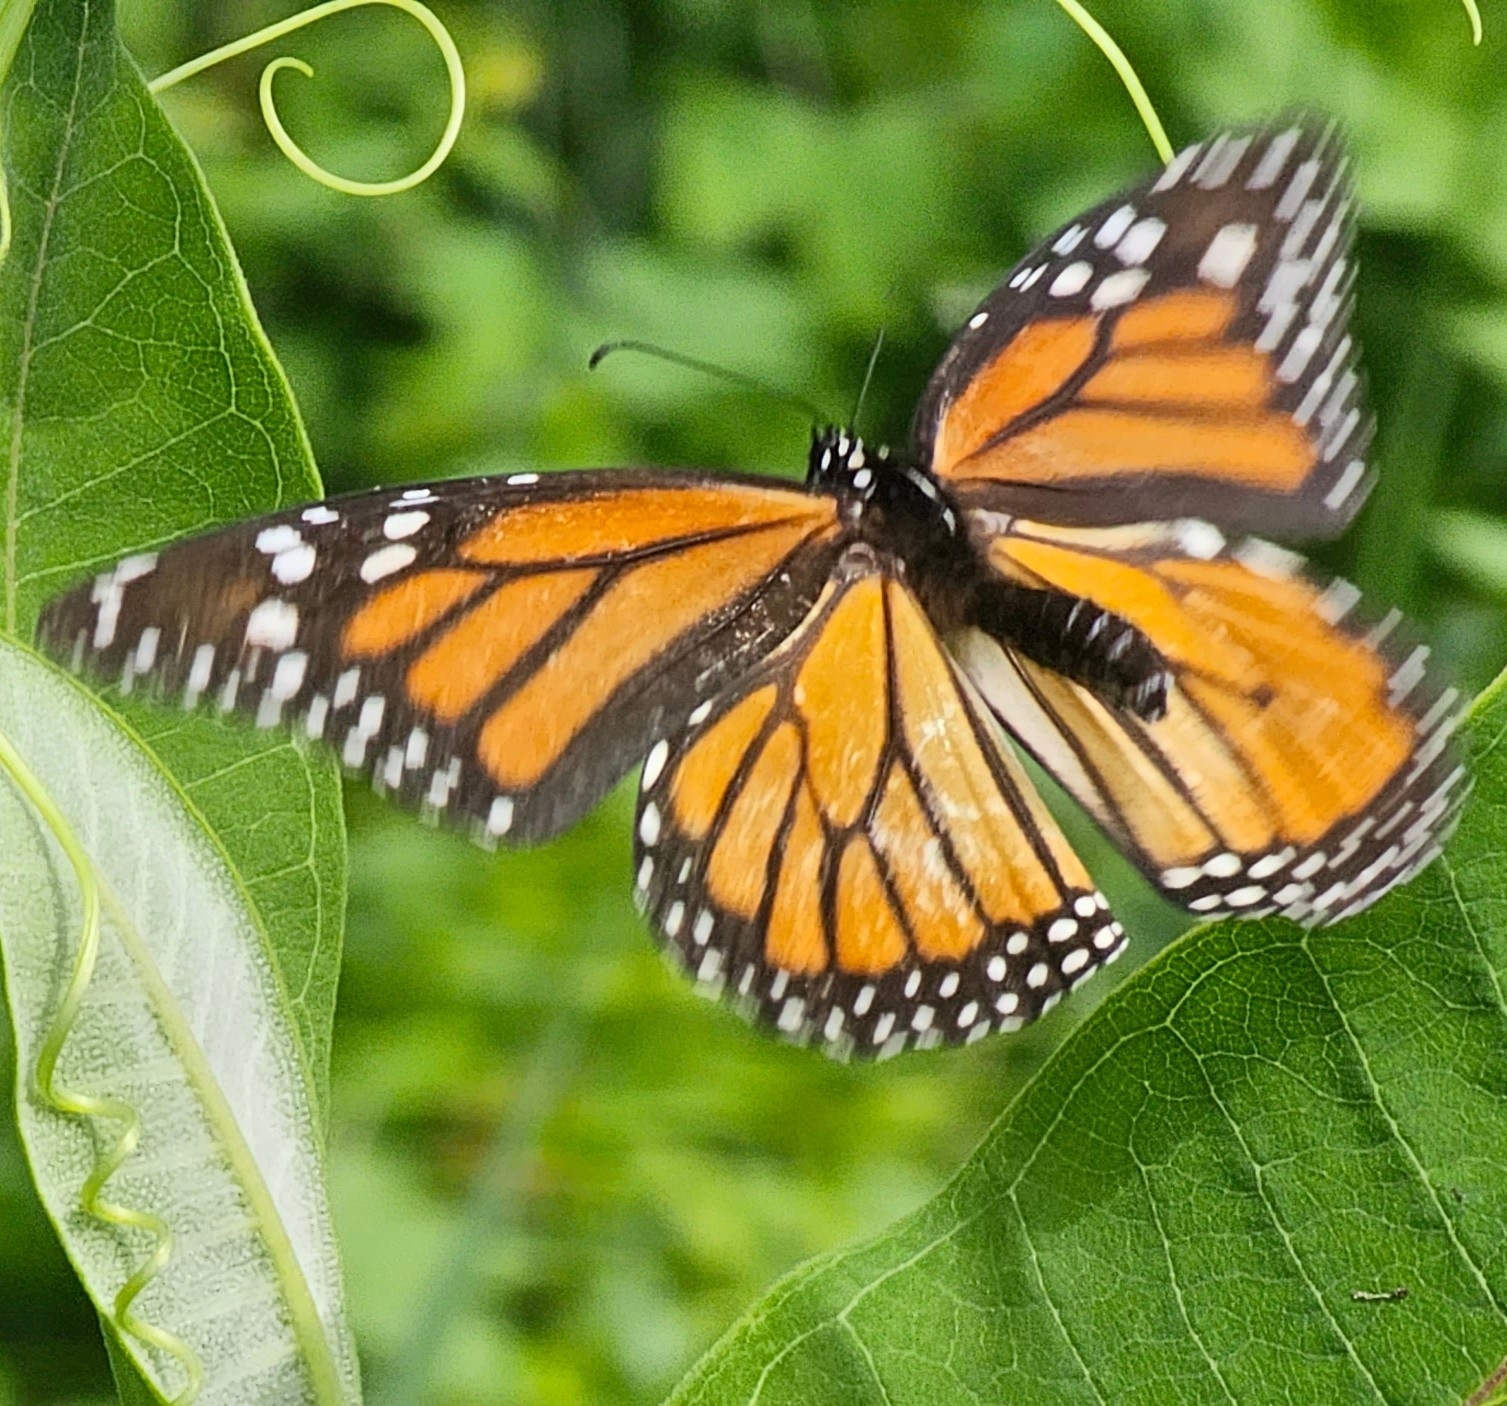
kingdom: Animalia
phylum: Arthropoda
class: Insecta
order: Lepidoptera
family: Nymphalidae
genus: Danaus
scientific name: Danaus plexippus
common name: Monarch
